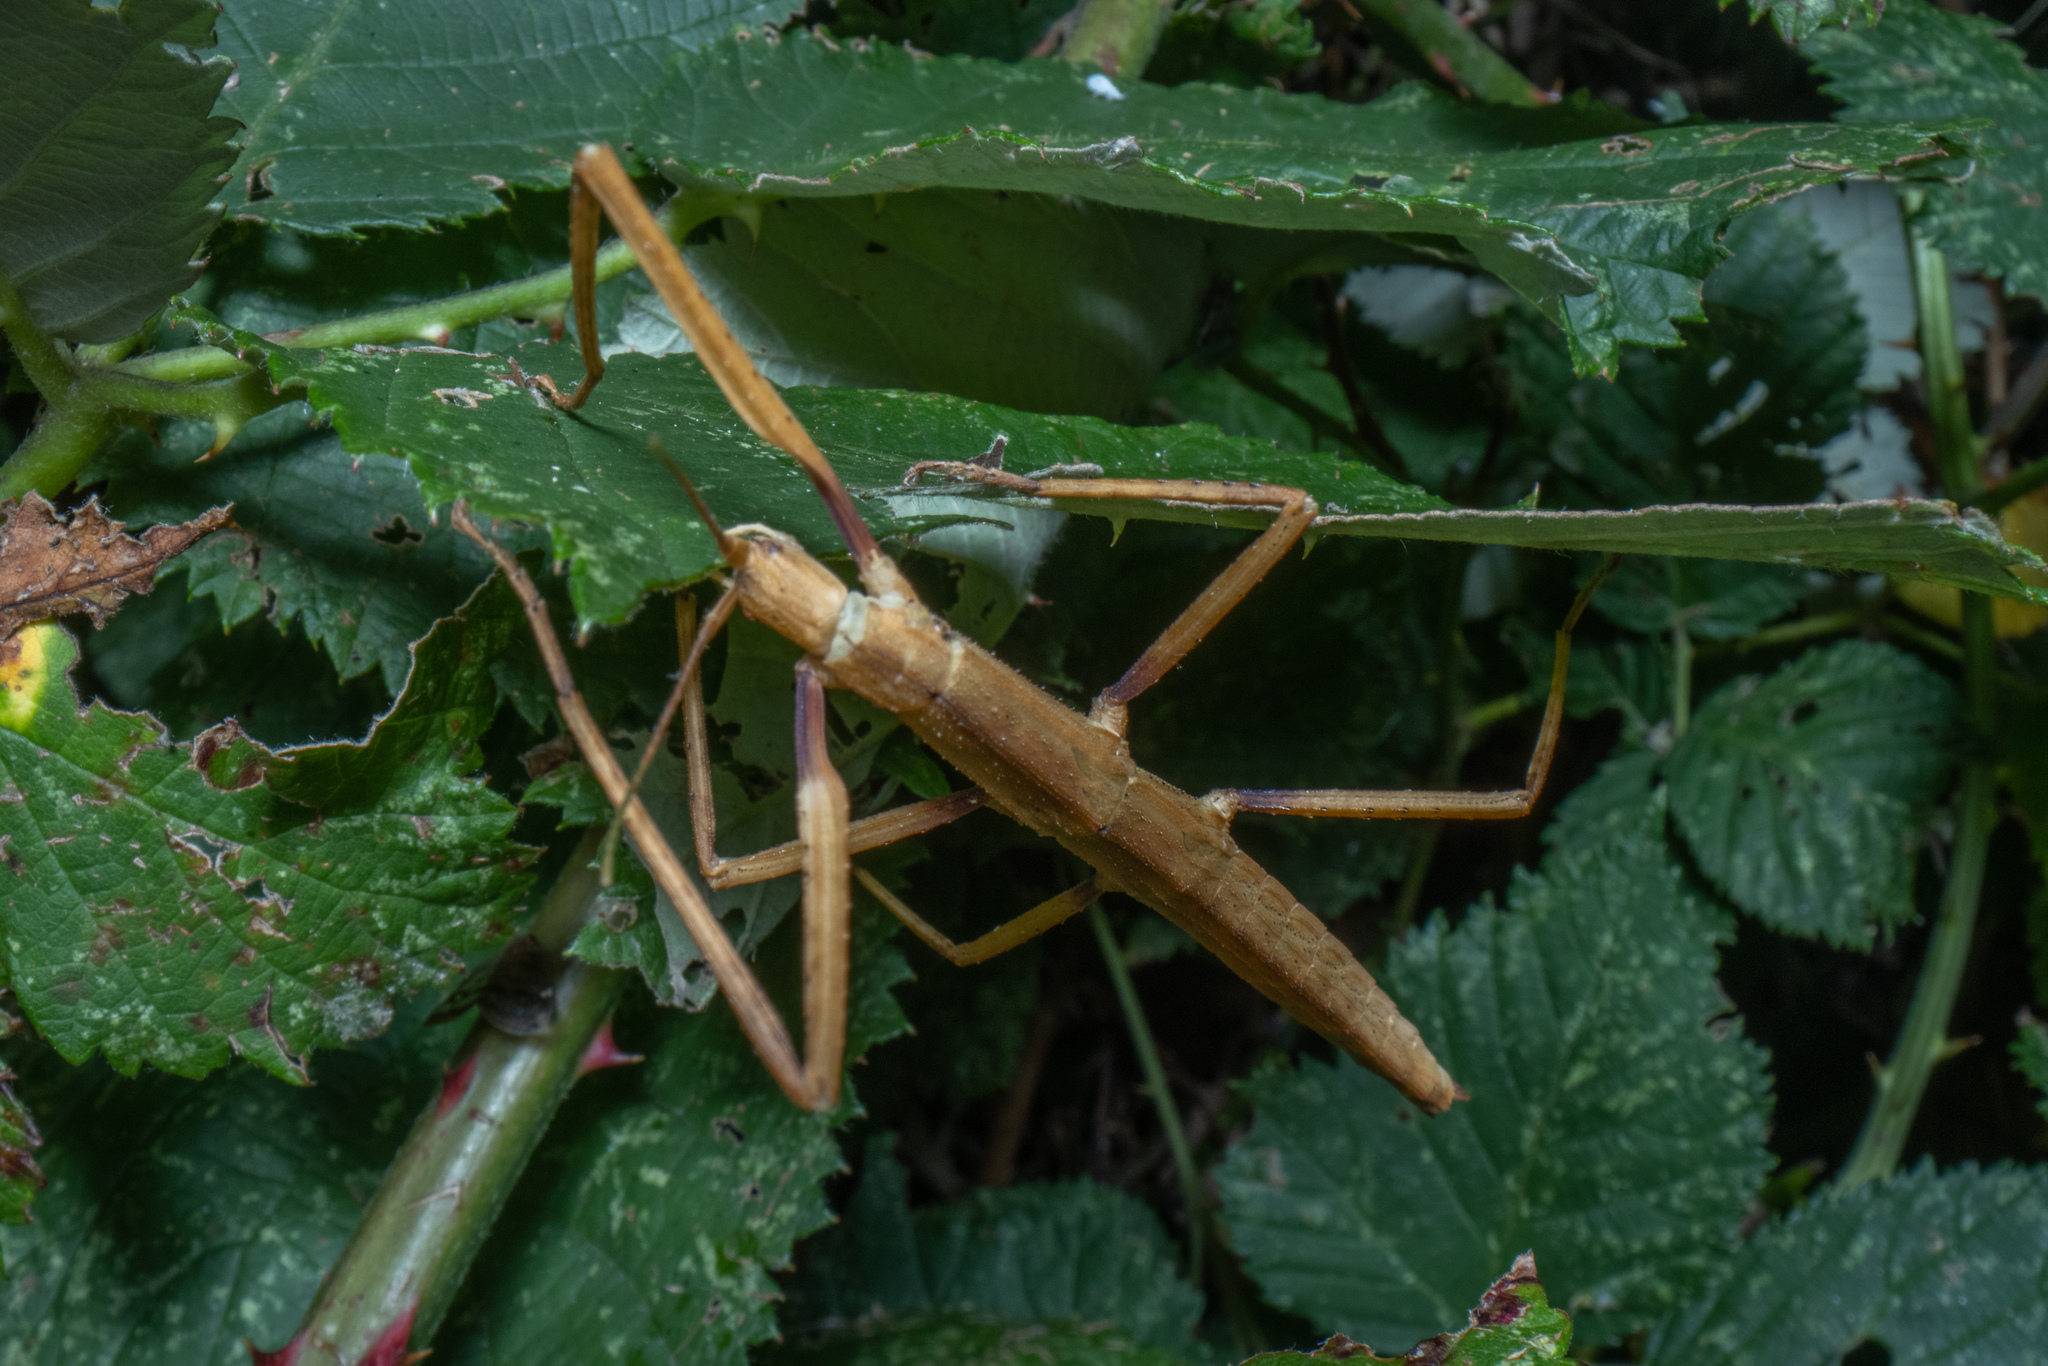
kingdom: Animalia
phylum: Arthropoda
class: Insecta
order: Phasmida
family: Phasmatidae
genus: Tectarchus
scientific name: Tectarchus huttoni
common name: The common ridge-backed stick insect
